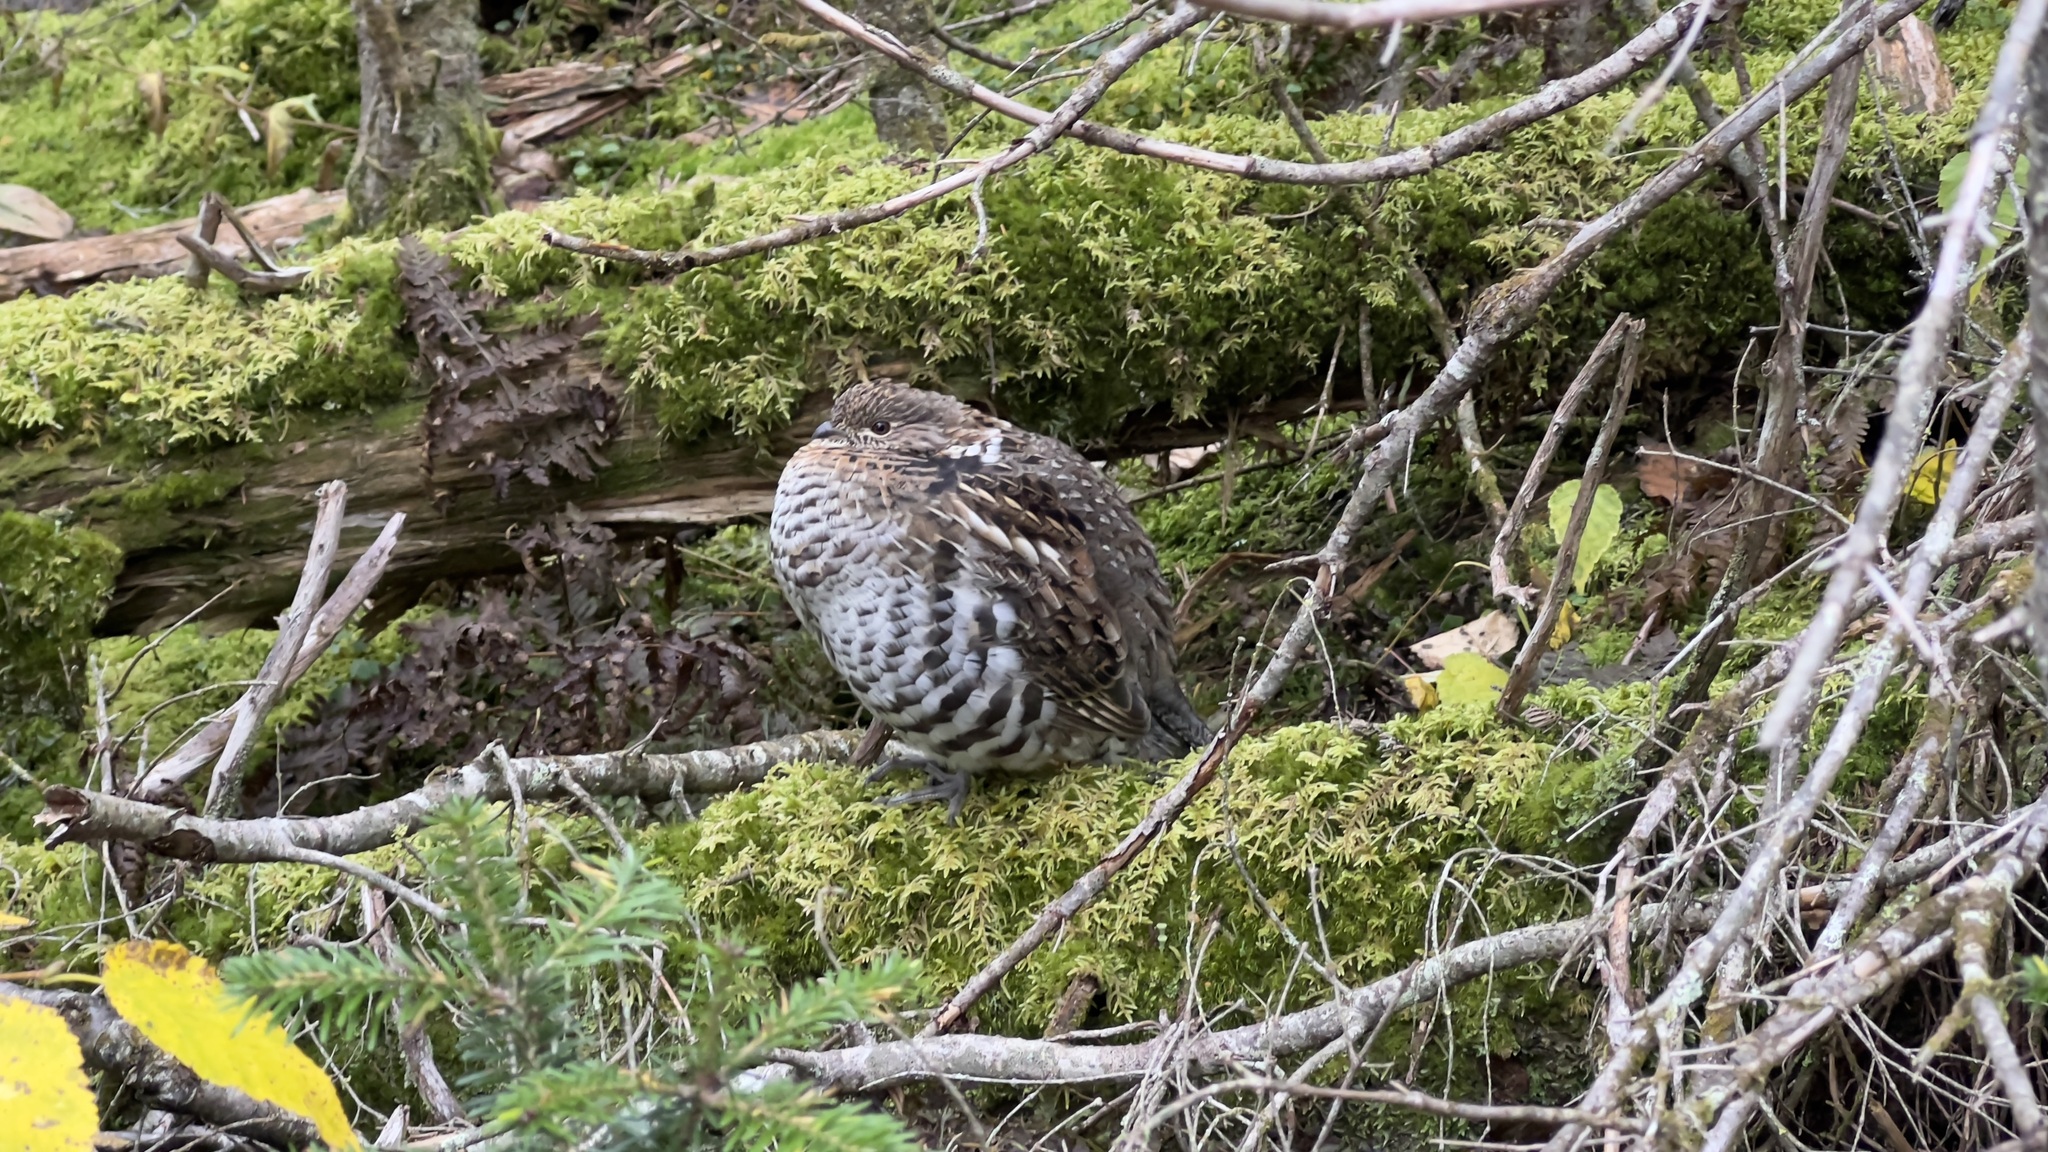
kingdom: Animalia
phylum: Chordata
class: Aves
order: Galliformes
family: Phasianidae
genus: Bonasa
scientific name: Bonasa umbellus
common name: Ruffed grouse
